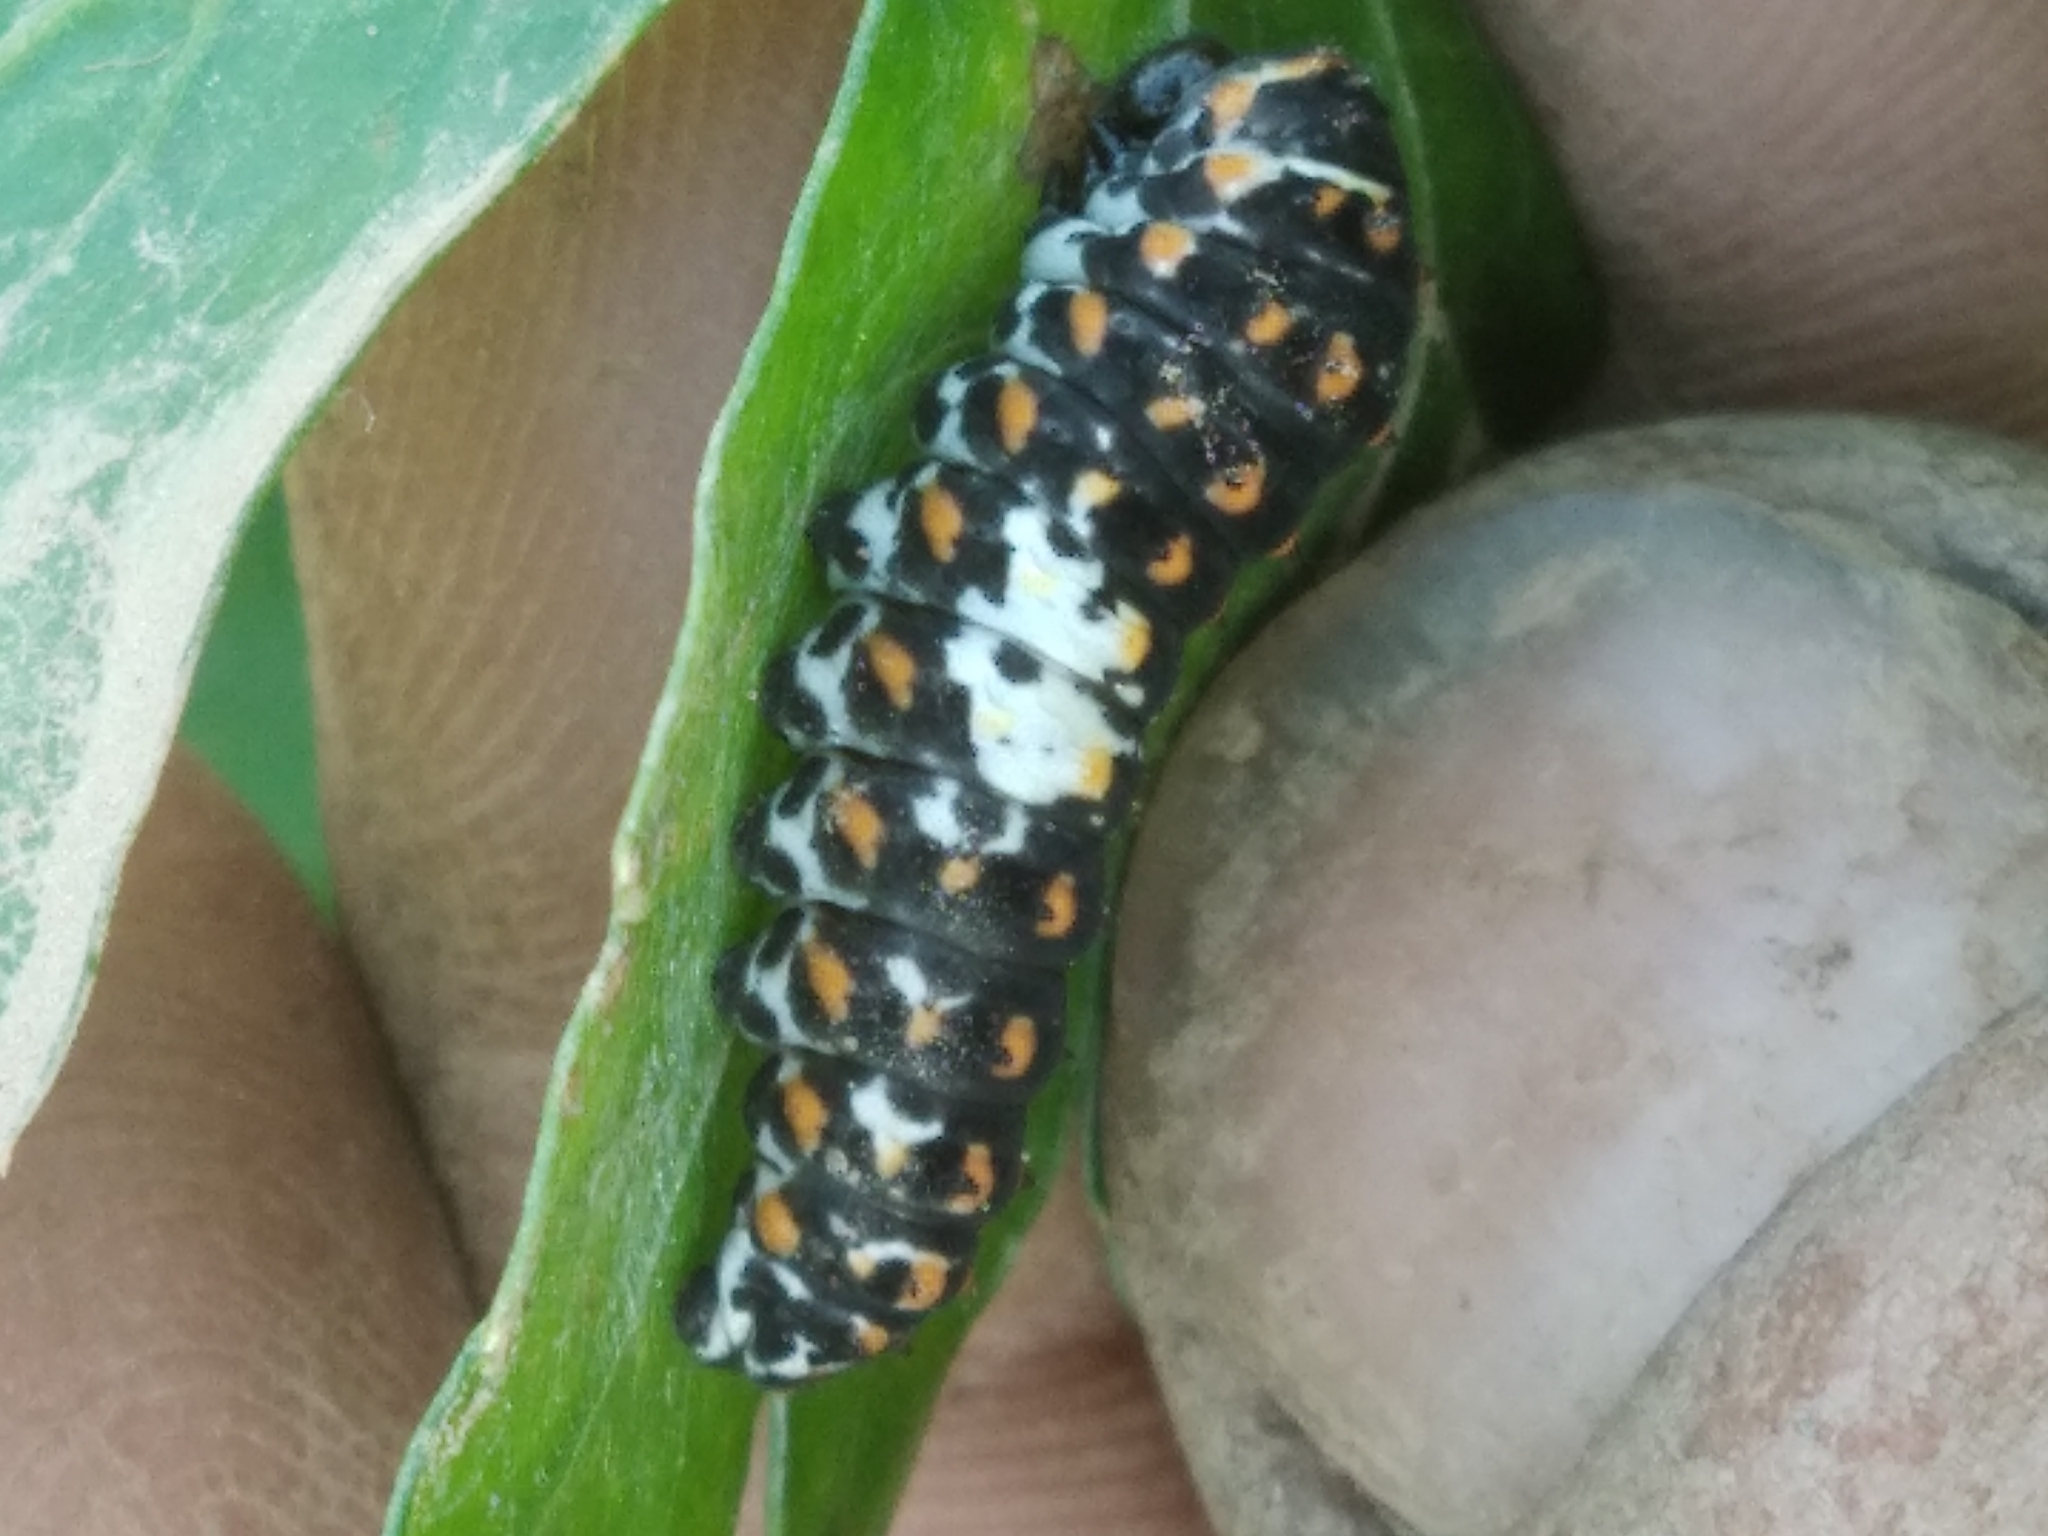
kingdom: Animalia
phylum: Arthropoda
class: Insecta
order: Lepidoptera
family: Papilionidae
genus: Papilio
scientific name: Papilio machaon
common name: Swallowtail
